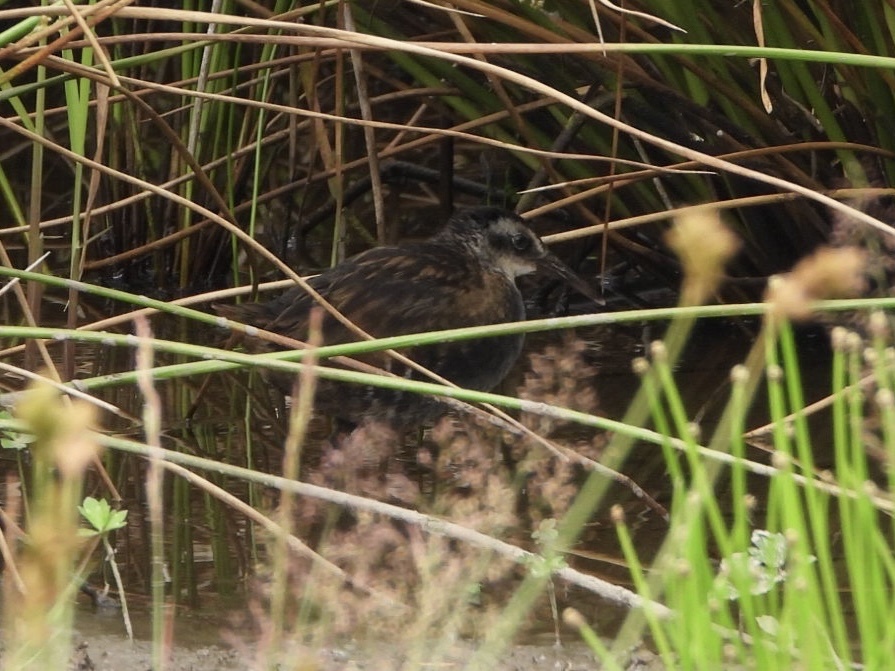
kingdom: Animalia
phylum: Chordata
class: Aves
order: Gruiformes
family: Rallidae
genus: Rallus
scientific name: Rallus limicola
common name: Virginia rail
